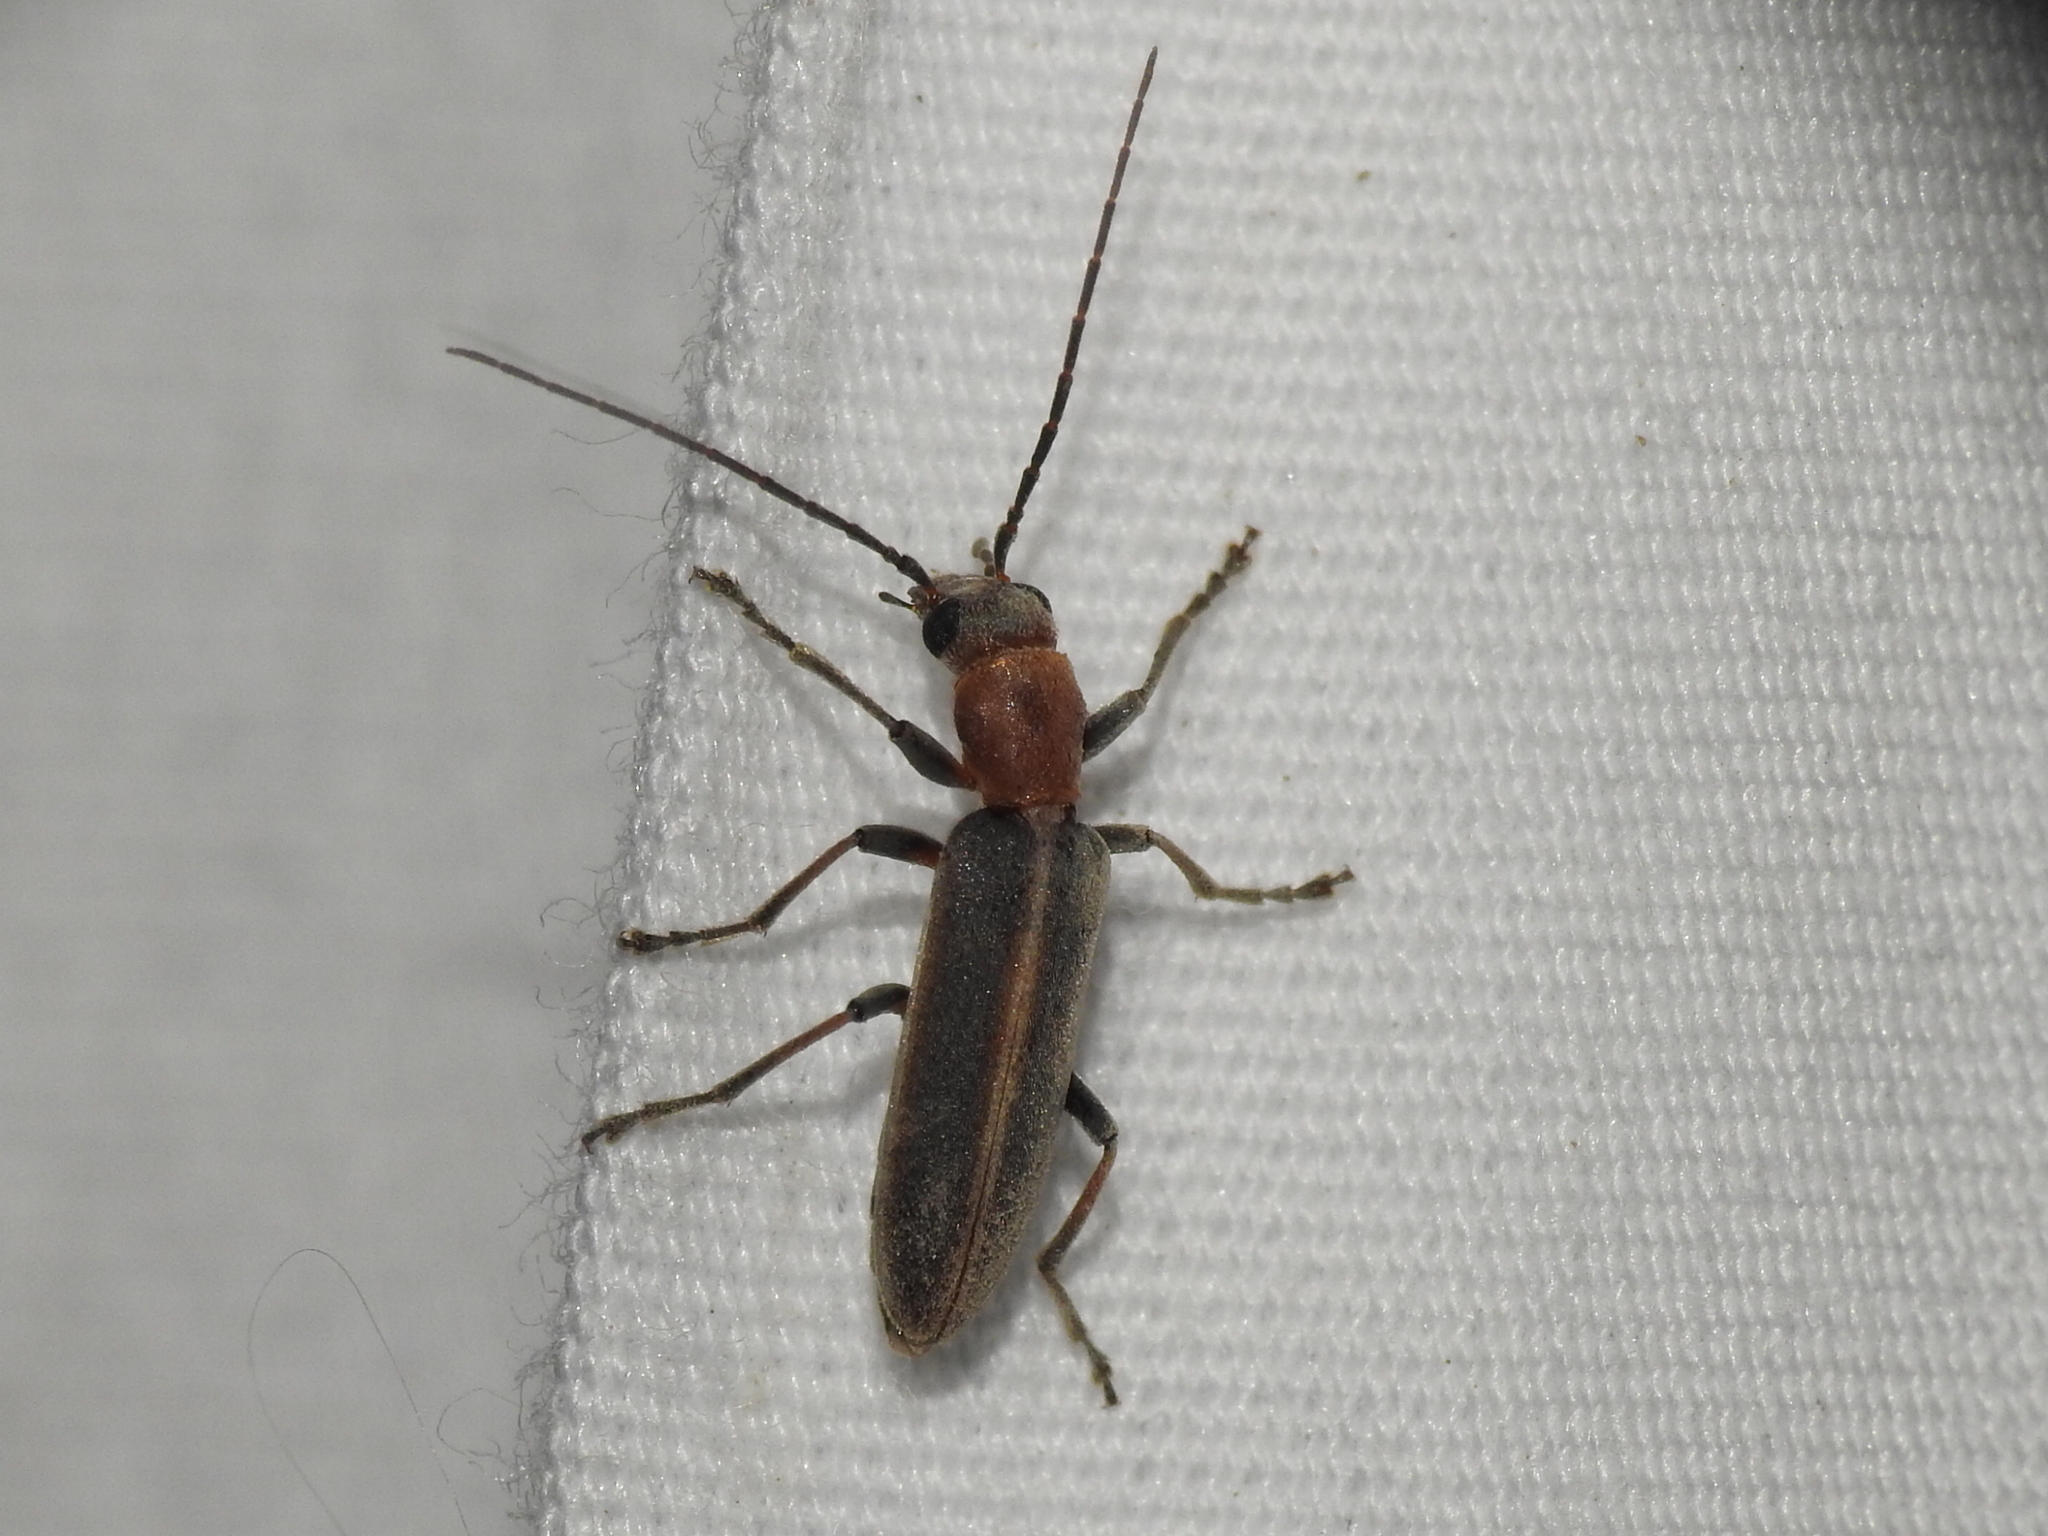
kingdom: Animalia
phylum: Arthropoda
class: Insecta
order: Coleoptera
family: Oedemeridae
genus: Oxacis
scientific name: Oxacis cana
